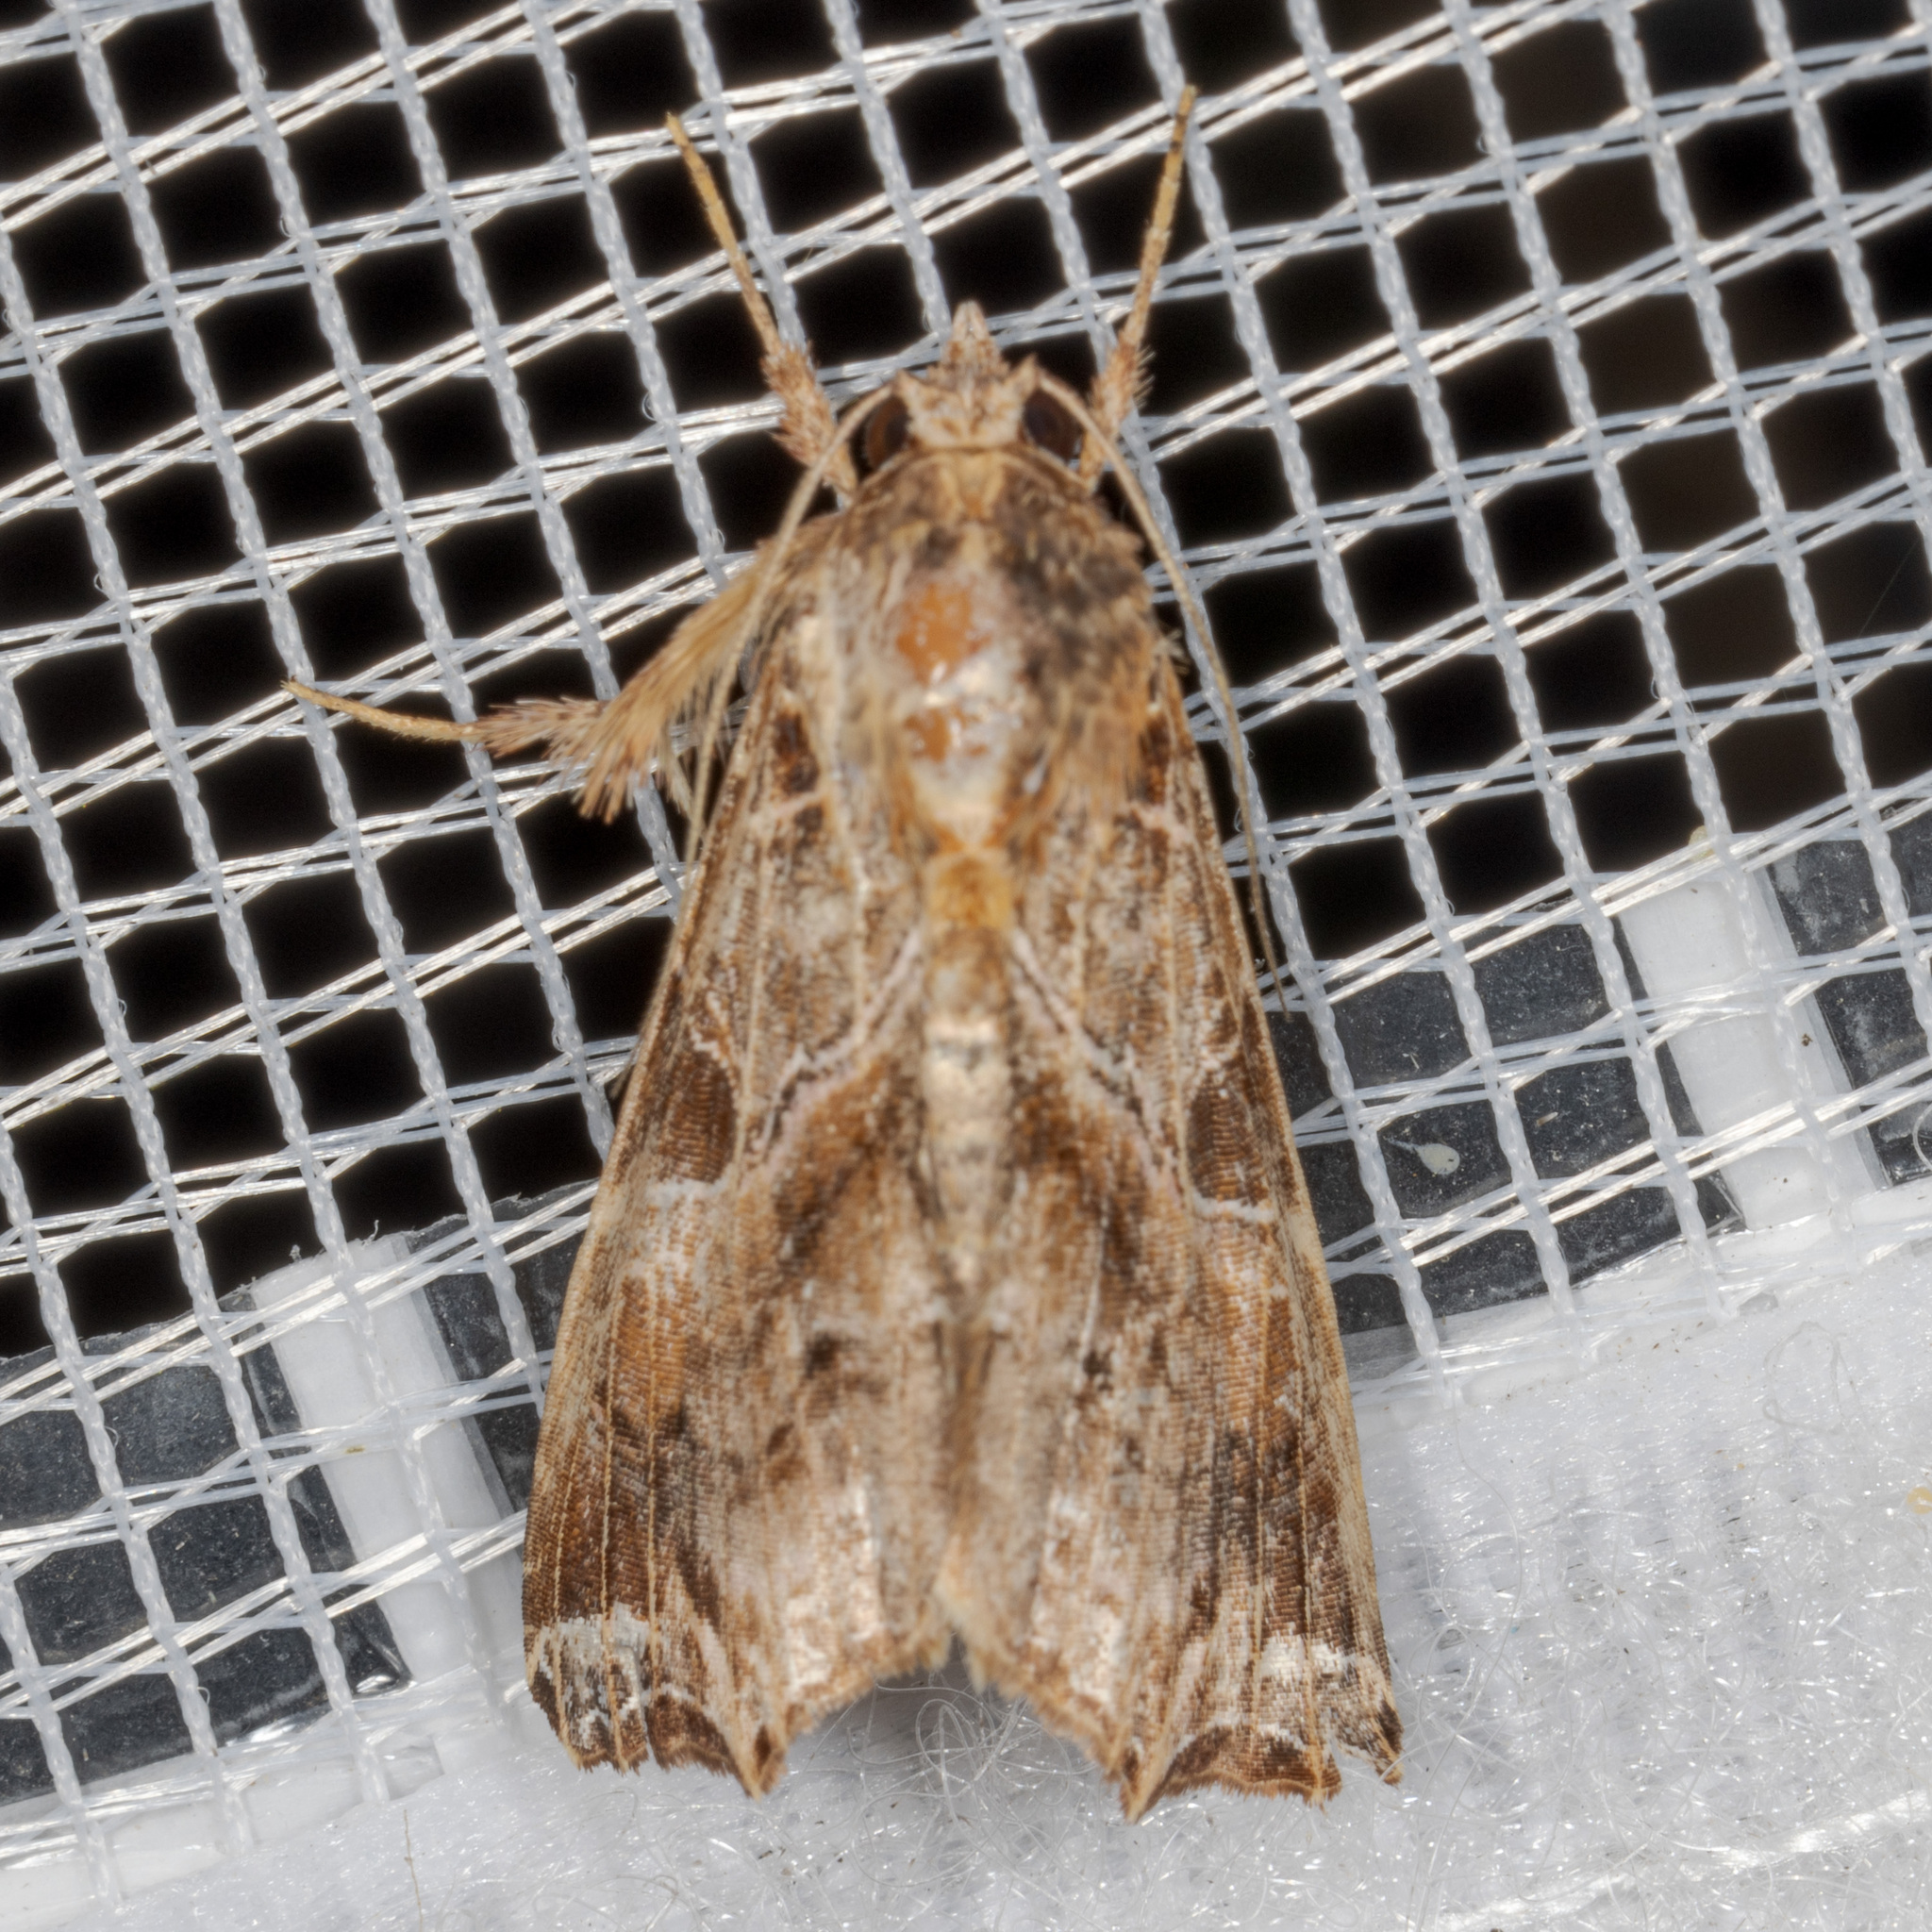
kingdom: Animalia
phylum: Arthropoda
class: Insecta
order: Lepidoptera
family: Noctuidae
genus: Callopistria
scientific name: Callopistria floridensis
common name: Florida fern moth
